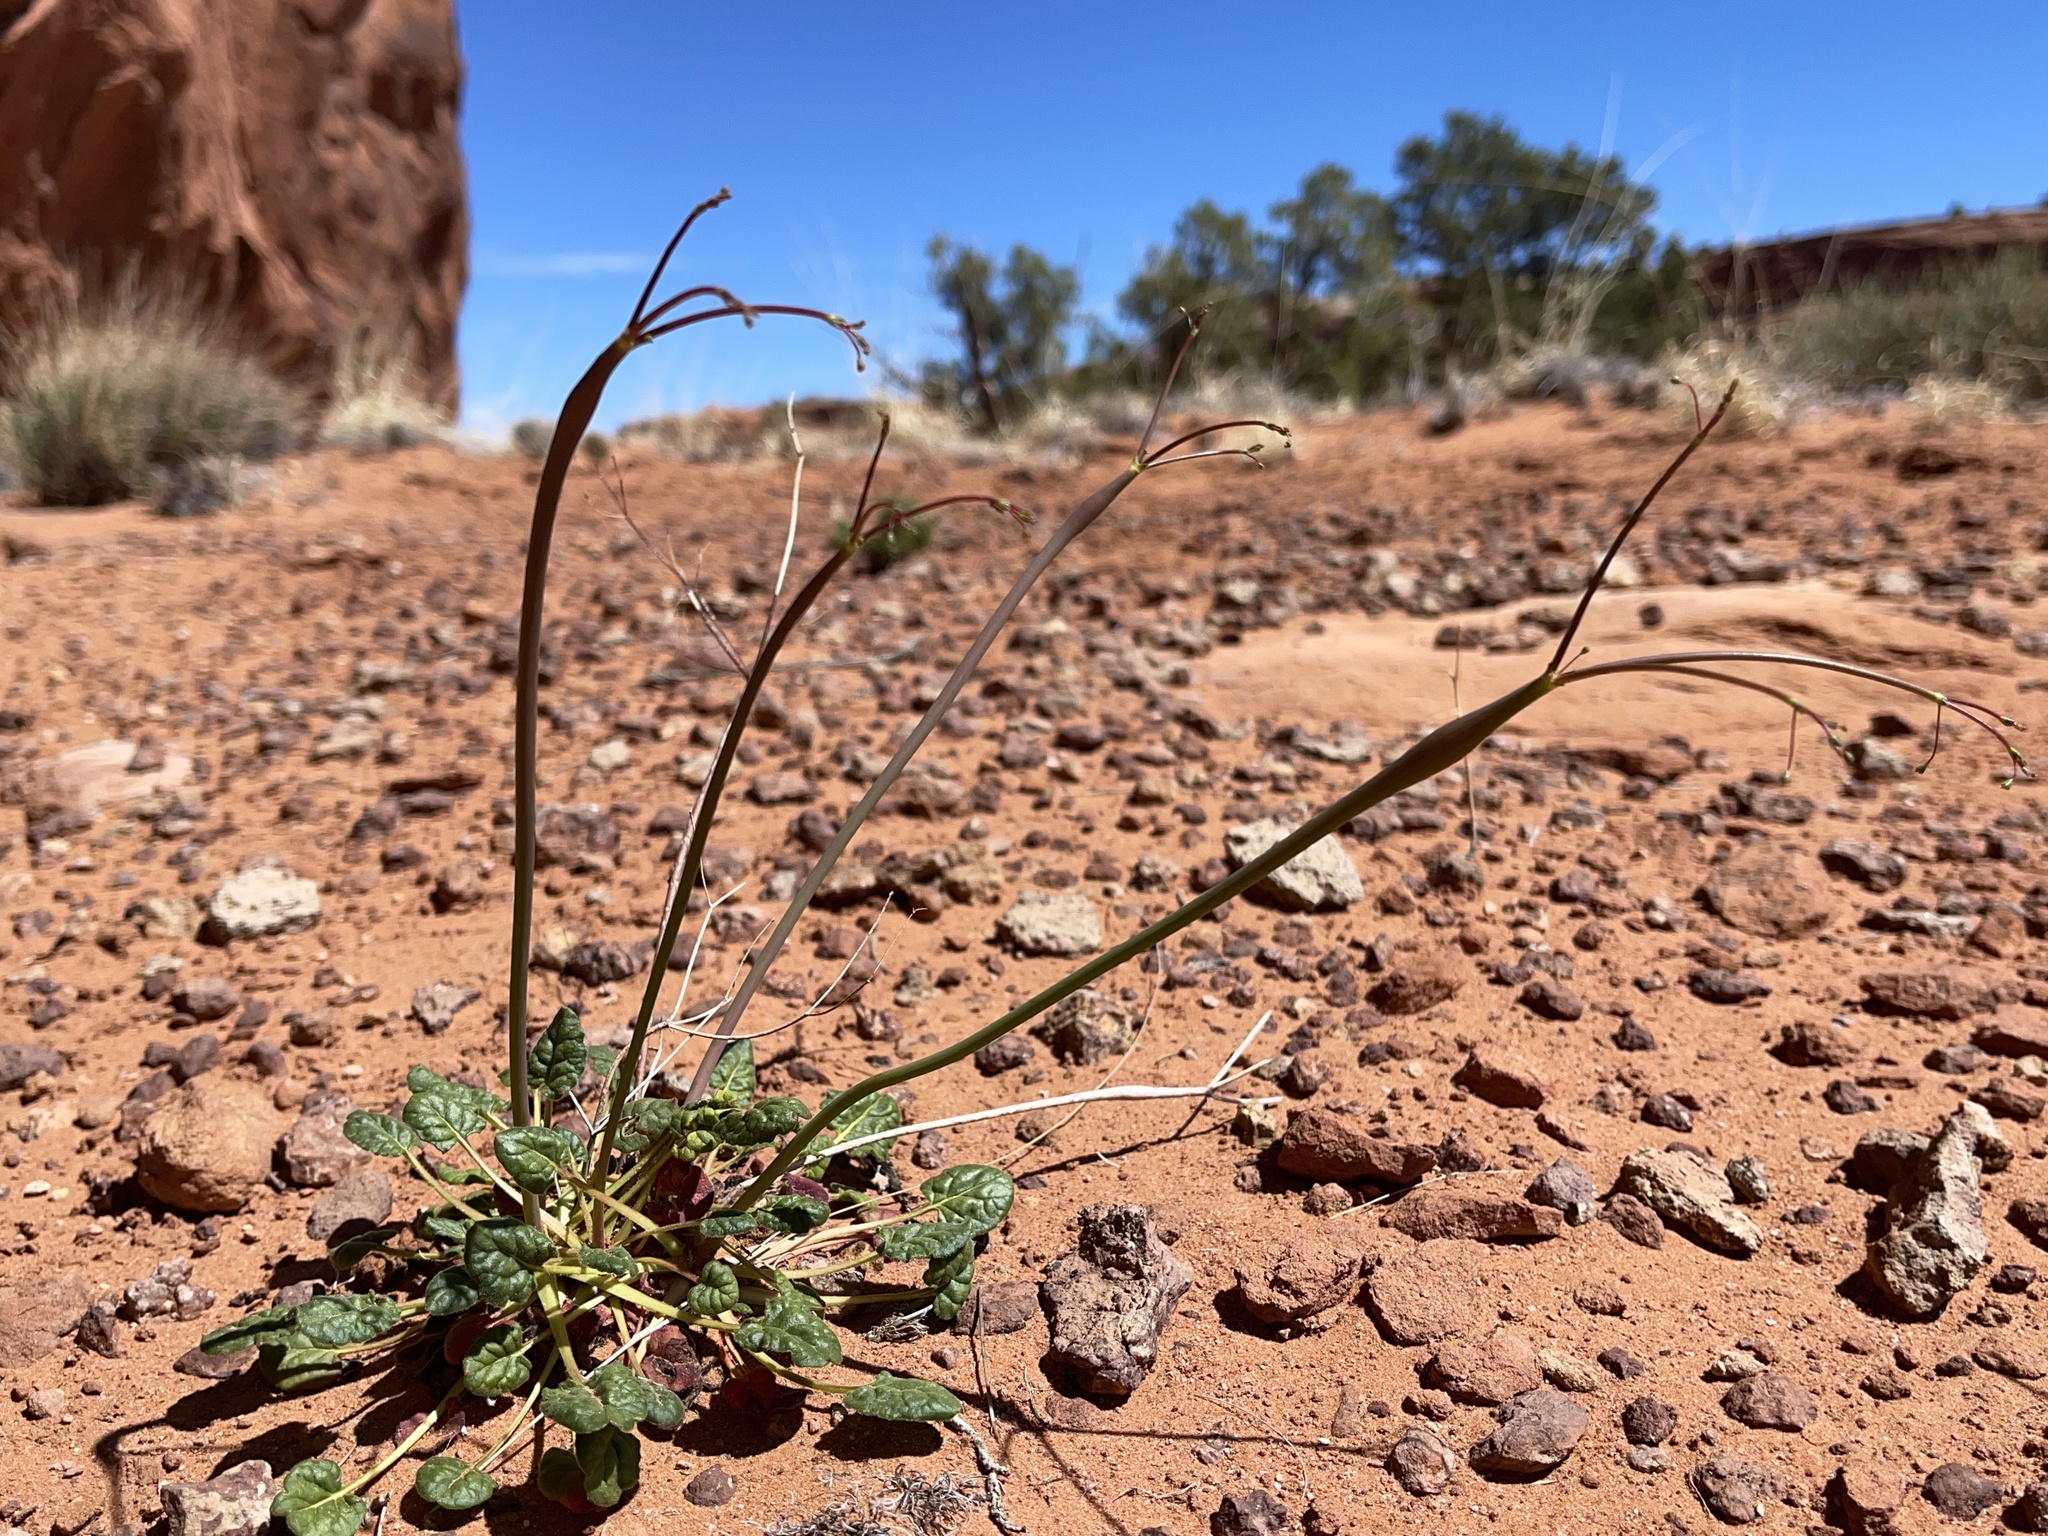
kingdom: Plantae
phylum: Tracheophyta
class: Magnoliopsida
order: Caryophyllales
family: Polygonaceae
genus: Eriogonum
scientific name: Eriogonum inflatum
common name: Desert trumpet
